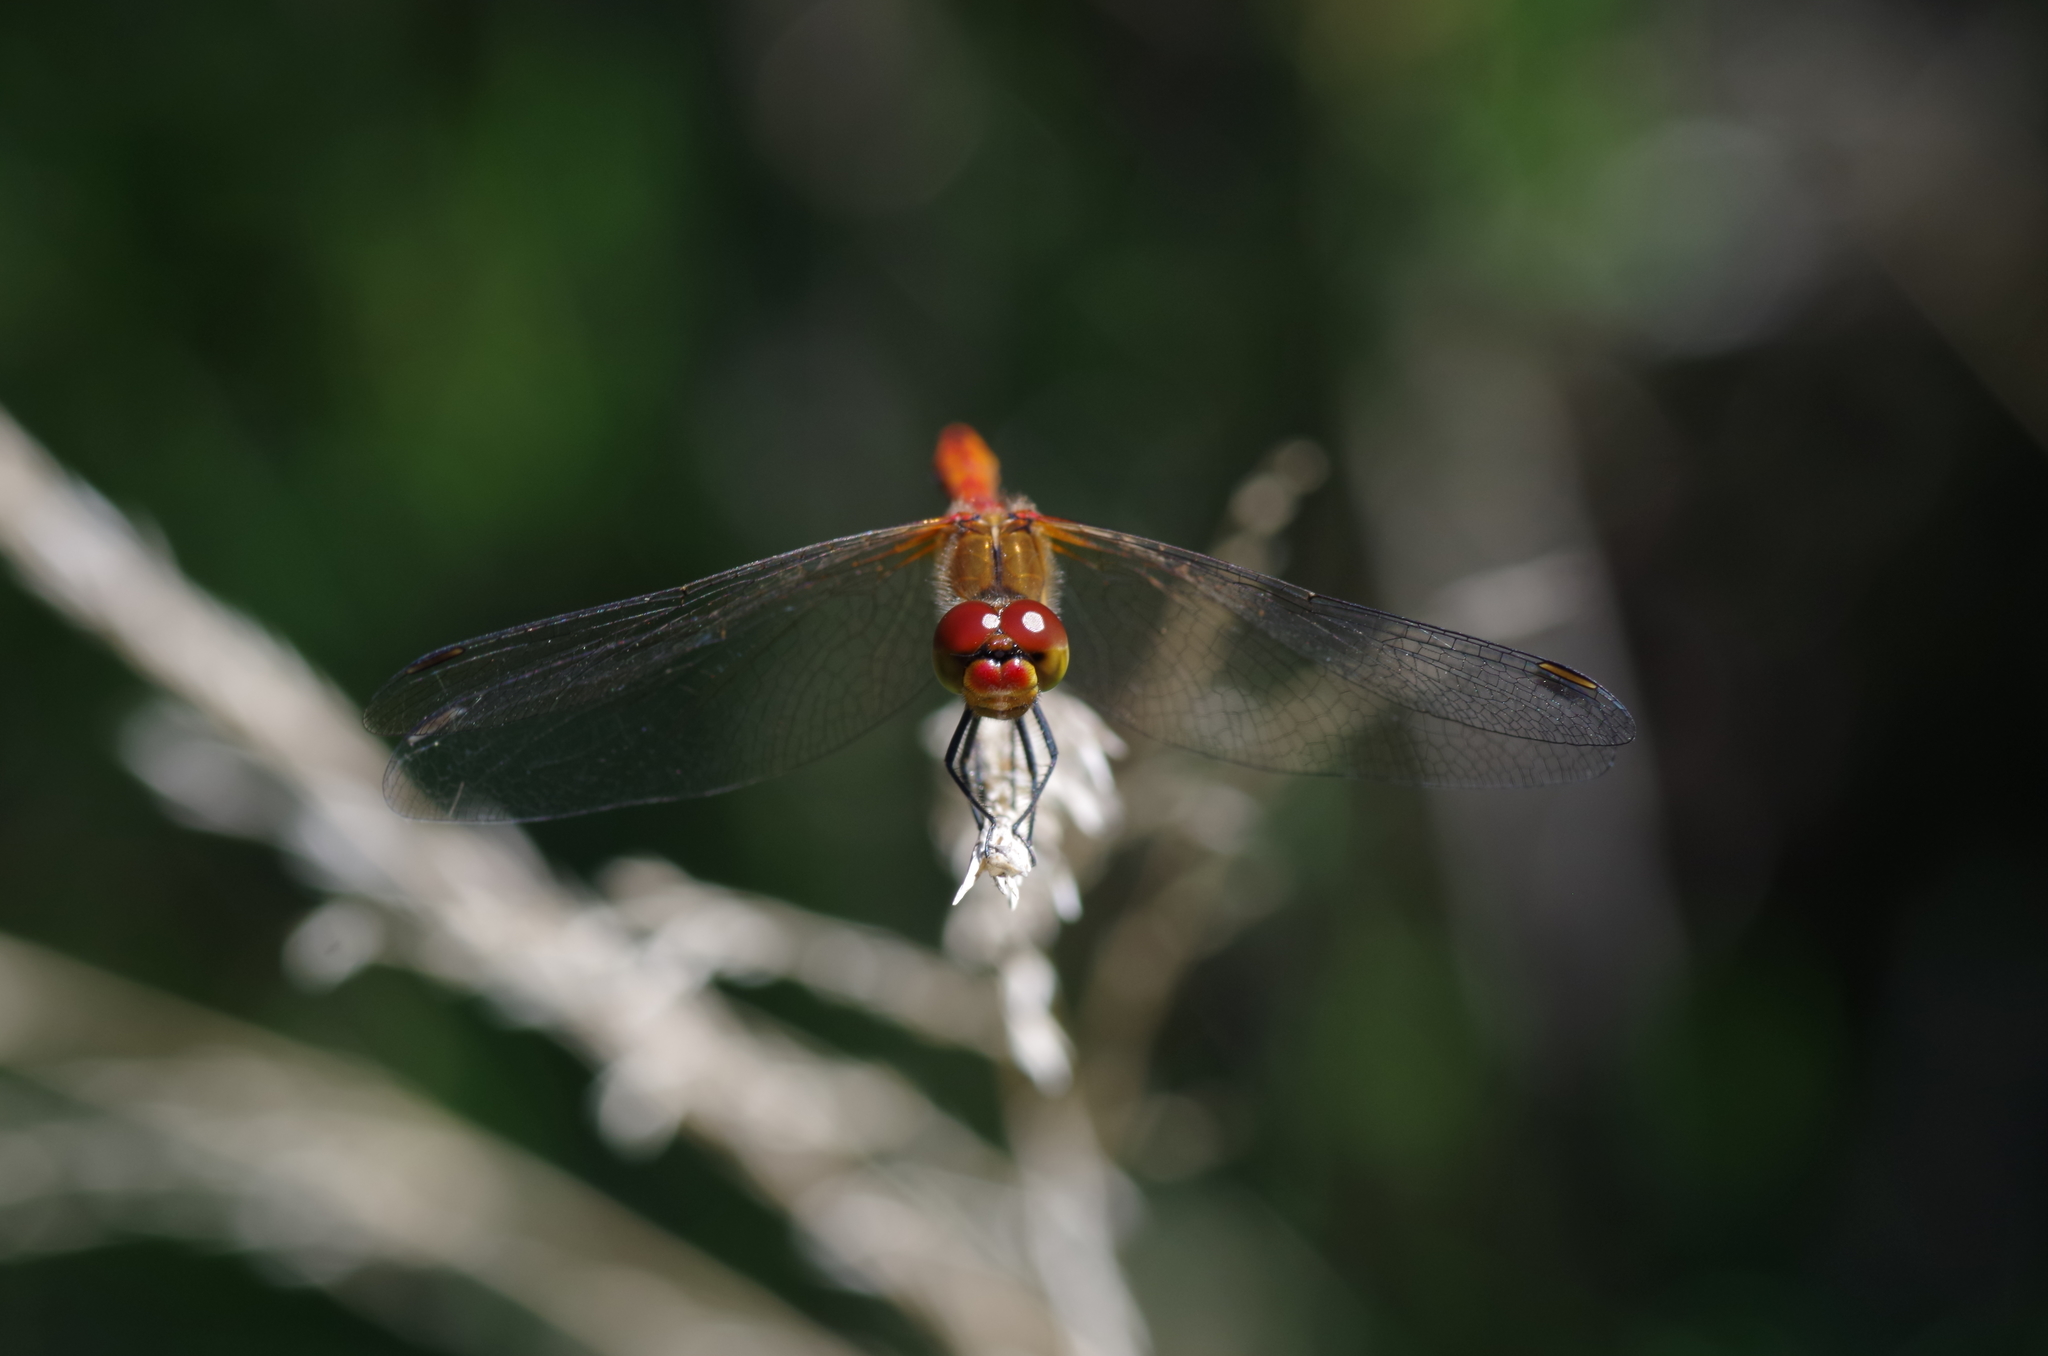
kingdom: Animalia
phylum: Arthropoda
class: Insecta
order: Odonata
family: Libellulidae
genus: Sympetrum
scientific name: Sympetrum sanguineum
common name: Ruddy darter
